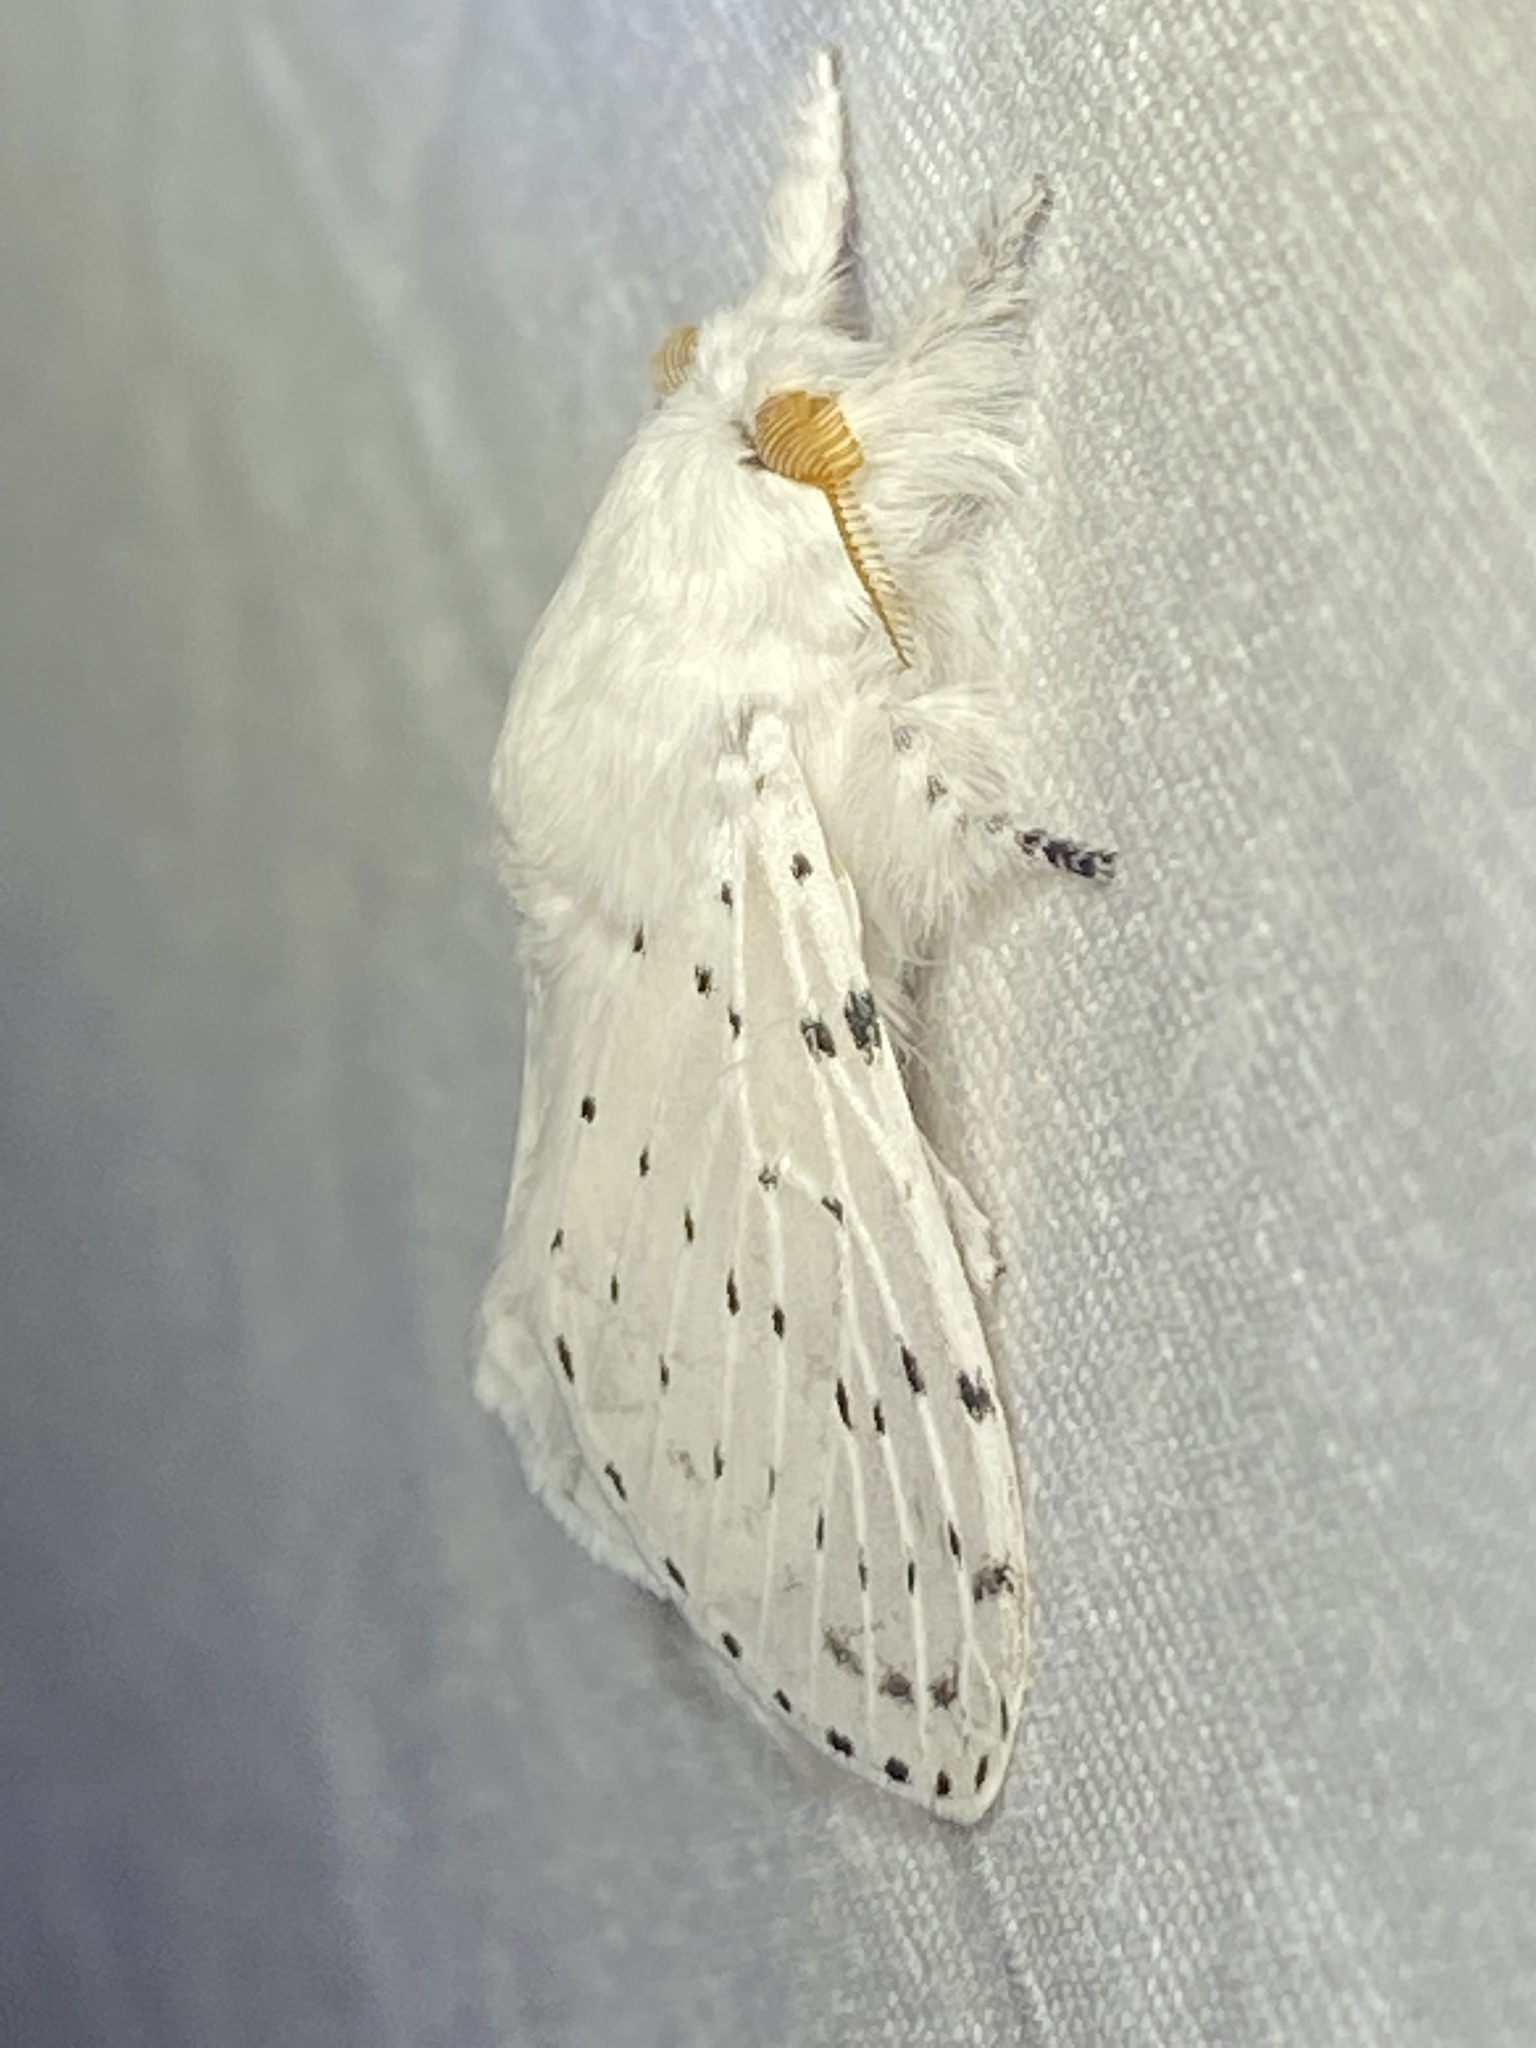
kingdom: Animalia
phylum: Arthropoda
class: Insecta
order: Lepidoptera
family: Lasiocampidae
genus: Artace
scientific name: Artace cribrarius
